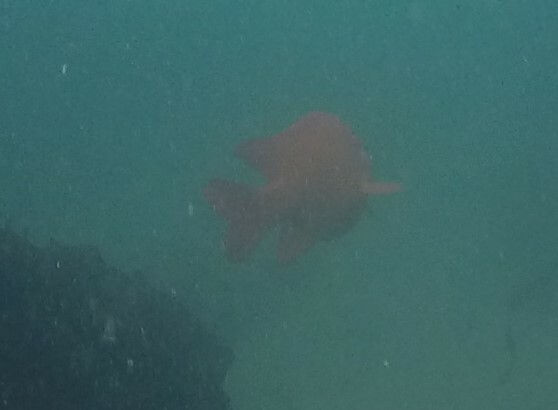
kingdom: Animalia
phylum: Chordata
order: Perciformes
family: Pomacentridae
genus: Hypsypops
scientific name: Hypsypops rubicundus
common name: Garibaldi
